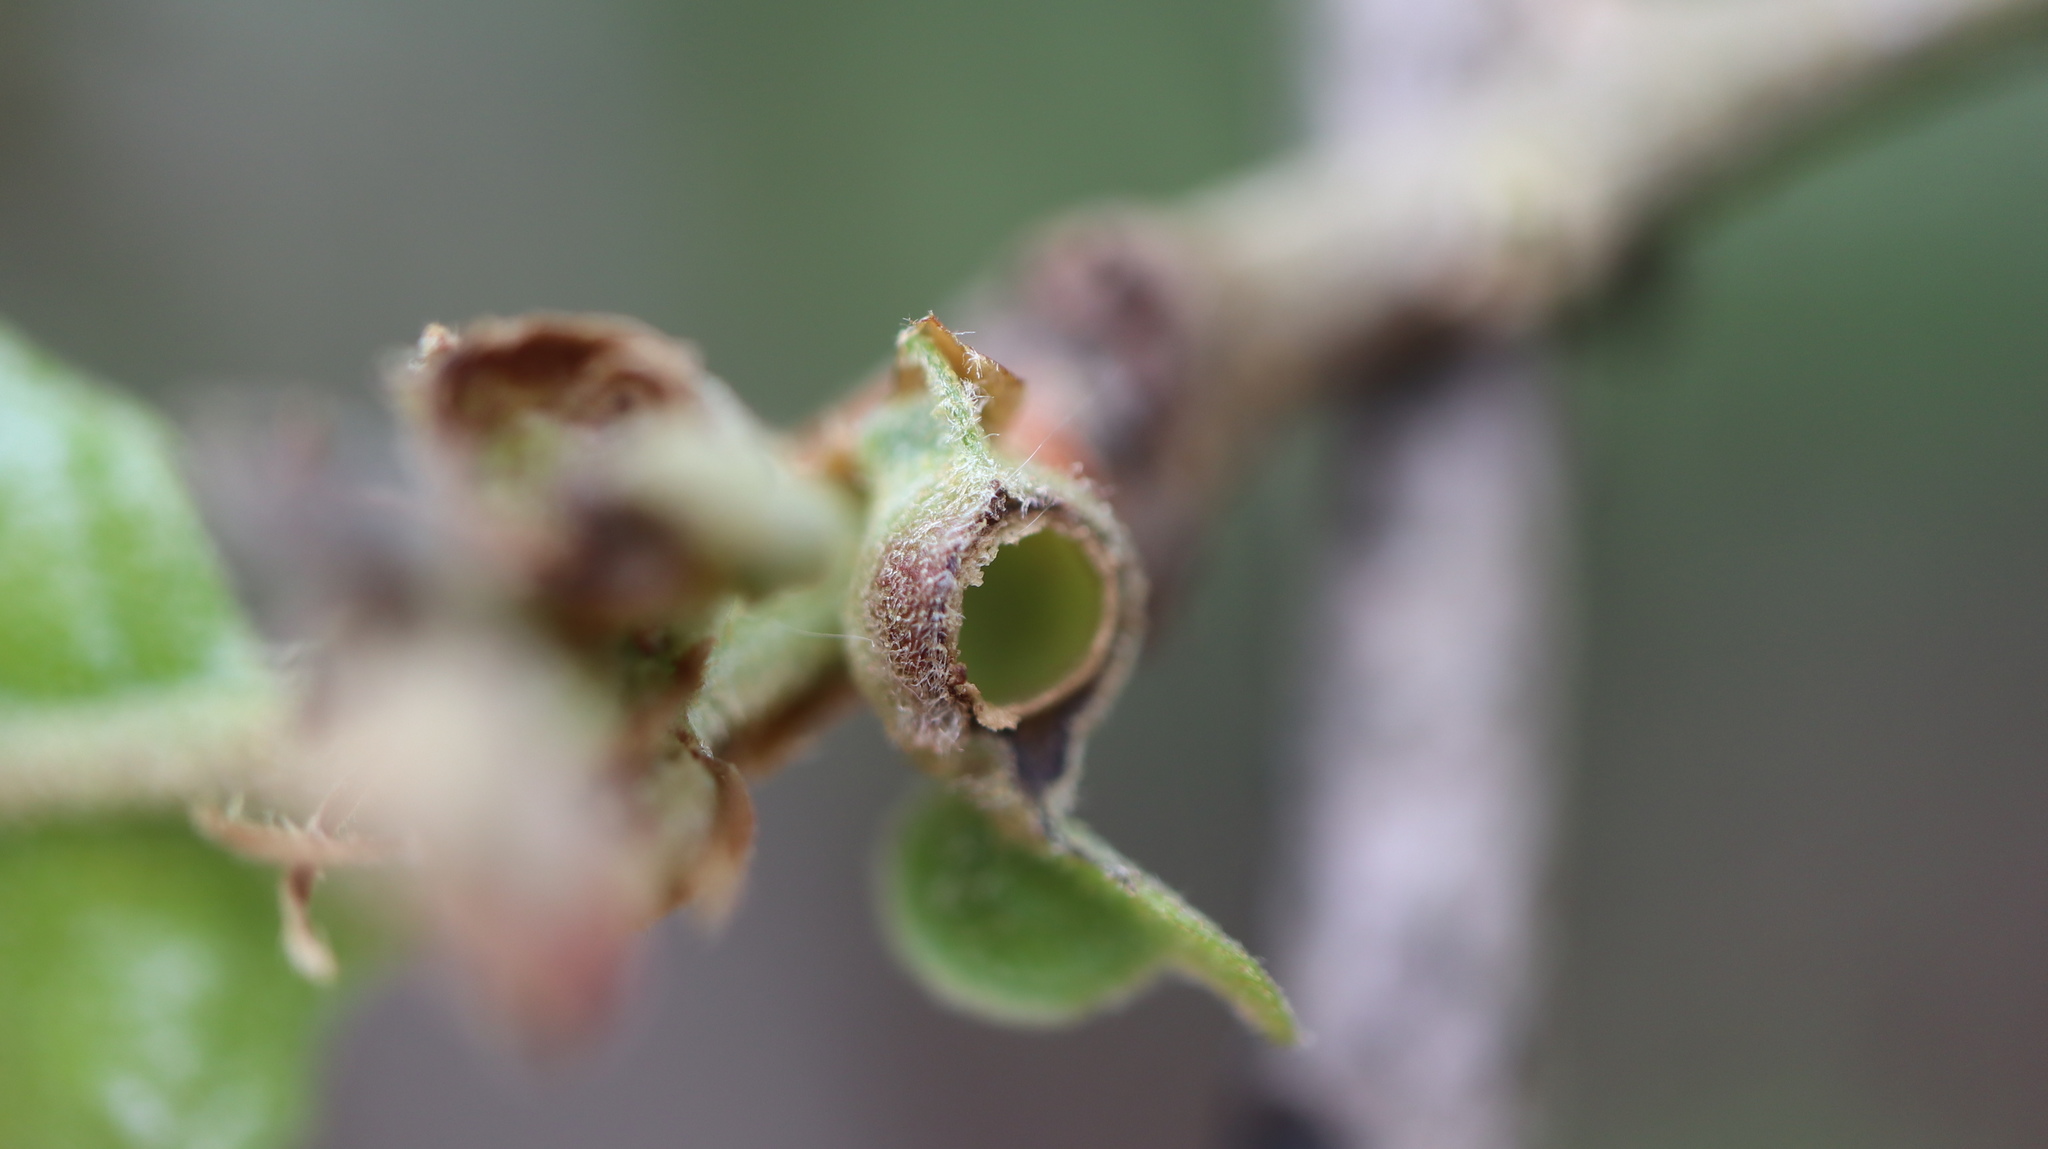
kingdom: Animalia
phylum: Arthropoda
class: Insecta
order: Hymenoptera
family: Cynipidae
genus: Andricus
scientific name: Andricus
